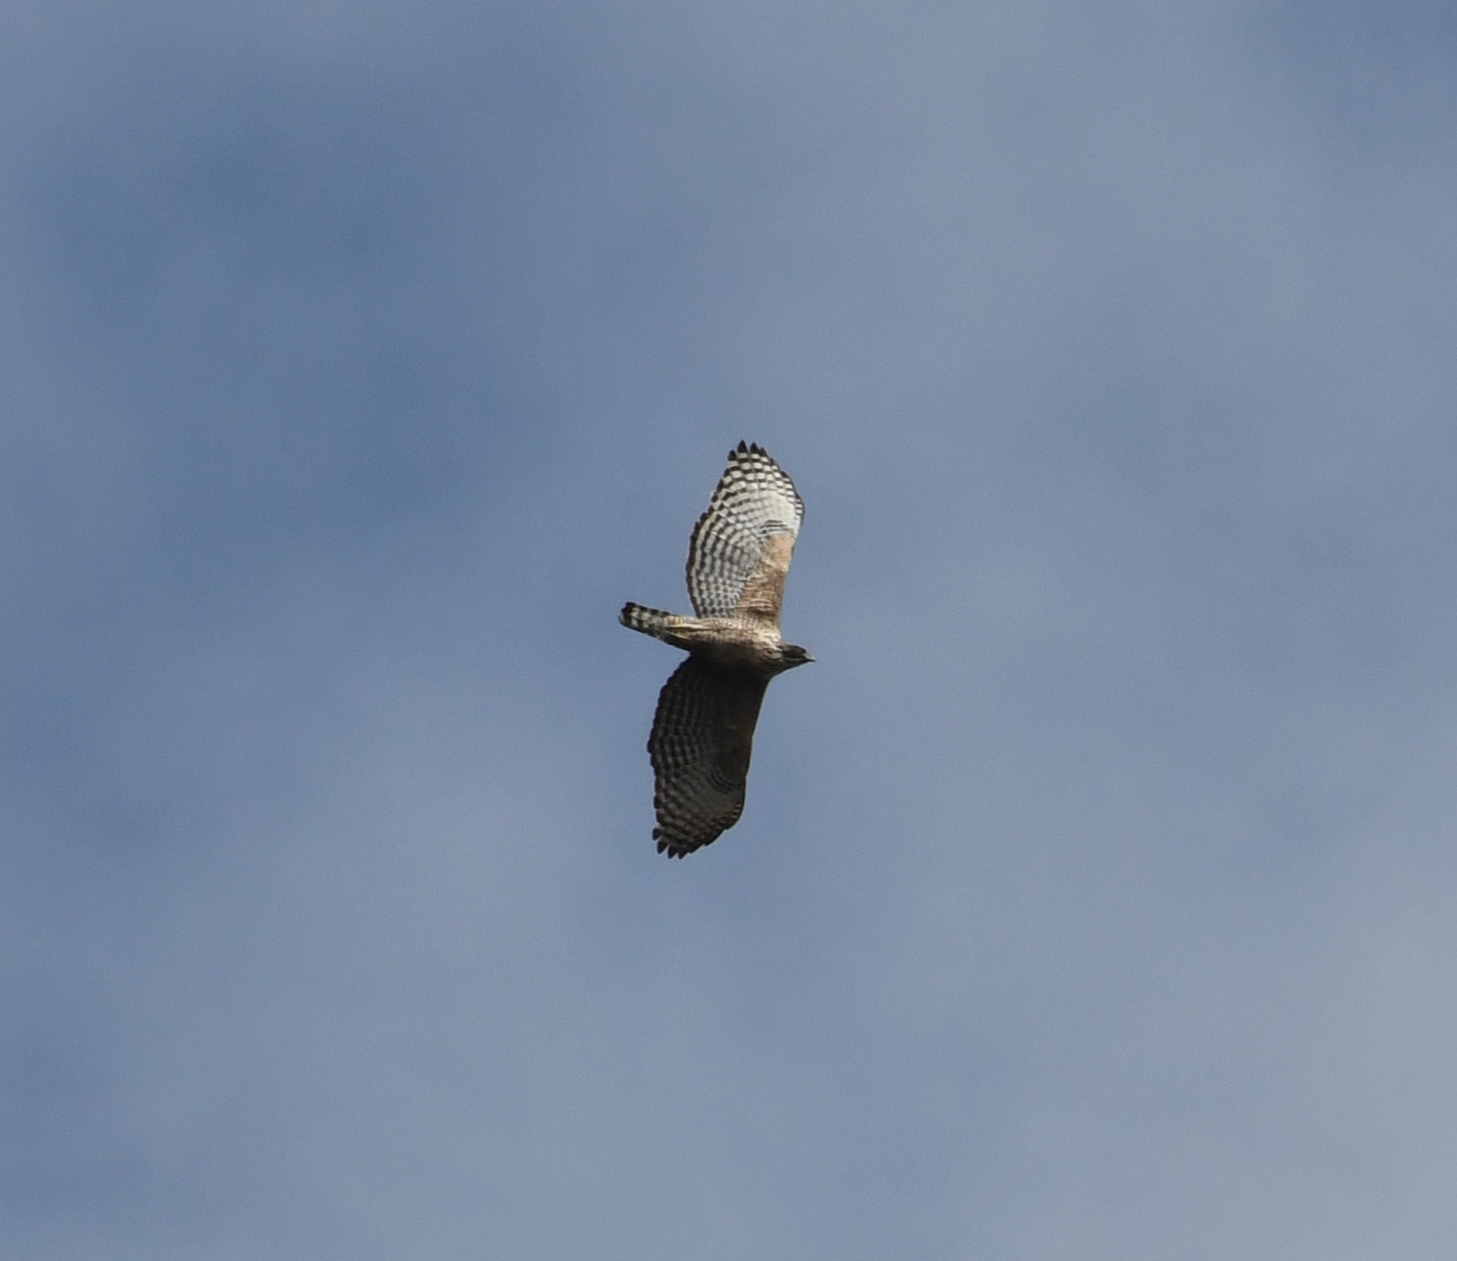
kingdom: Animalia
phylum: Chordata
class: Aves
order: Accipitriformes
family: Accipitridae
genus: Nisaetus
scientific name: Nisaetus nipalensis
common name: Mountain hawk-eagle
